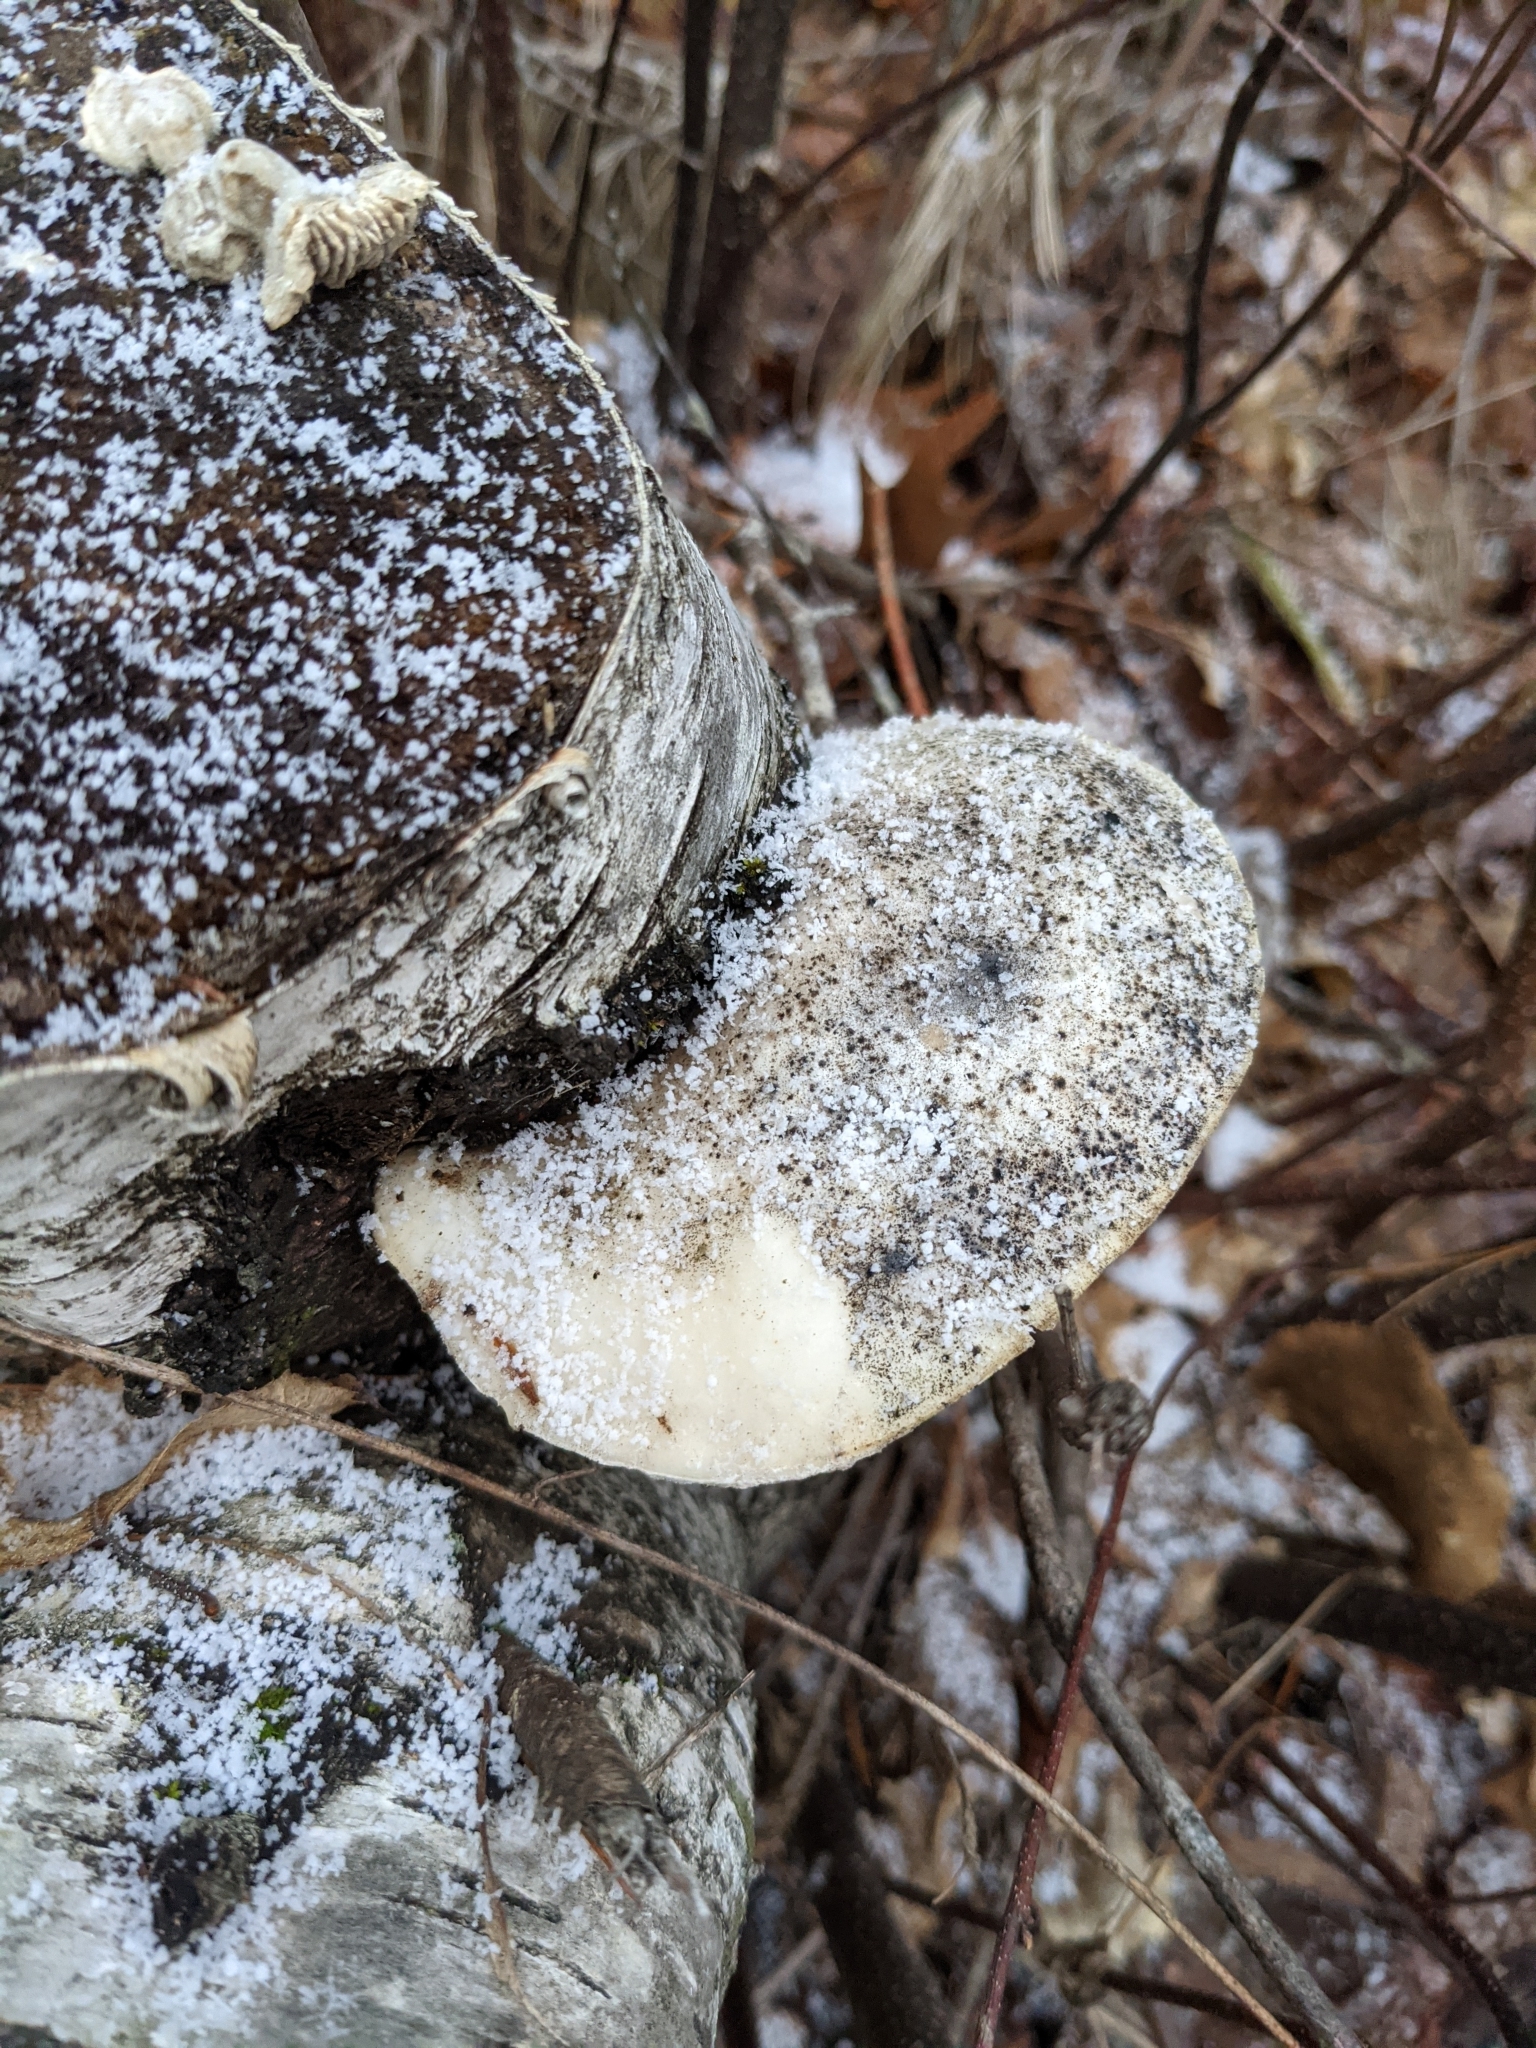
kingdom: Fungi
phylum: Basidiomycota
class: Agaricomycetes
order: Polyporales
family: Fomitopsidaceae
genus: Fomitopsis
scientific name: Fomitopsis betulina
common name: Birch polypore
